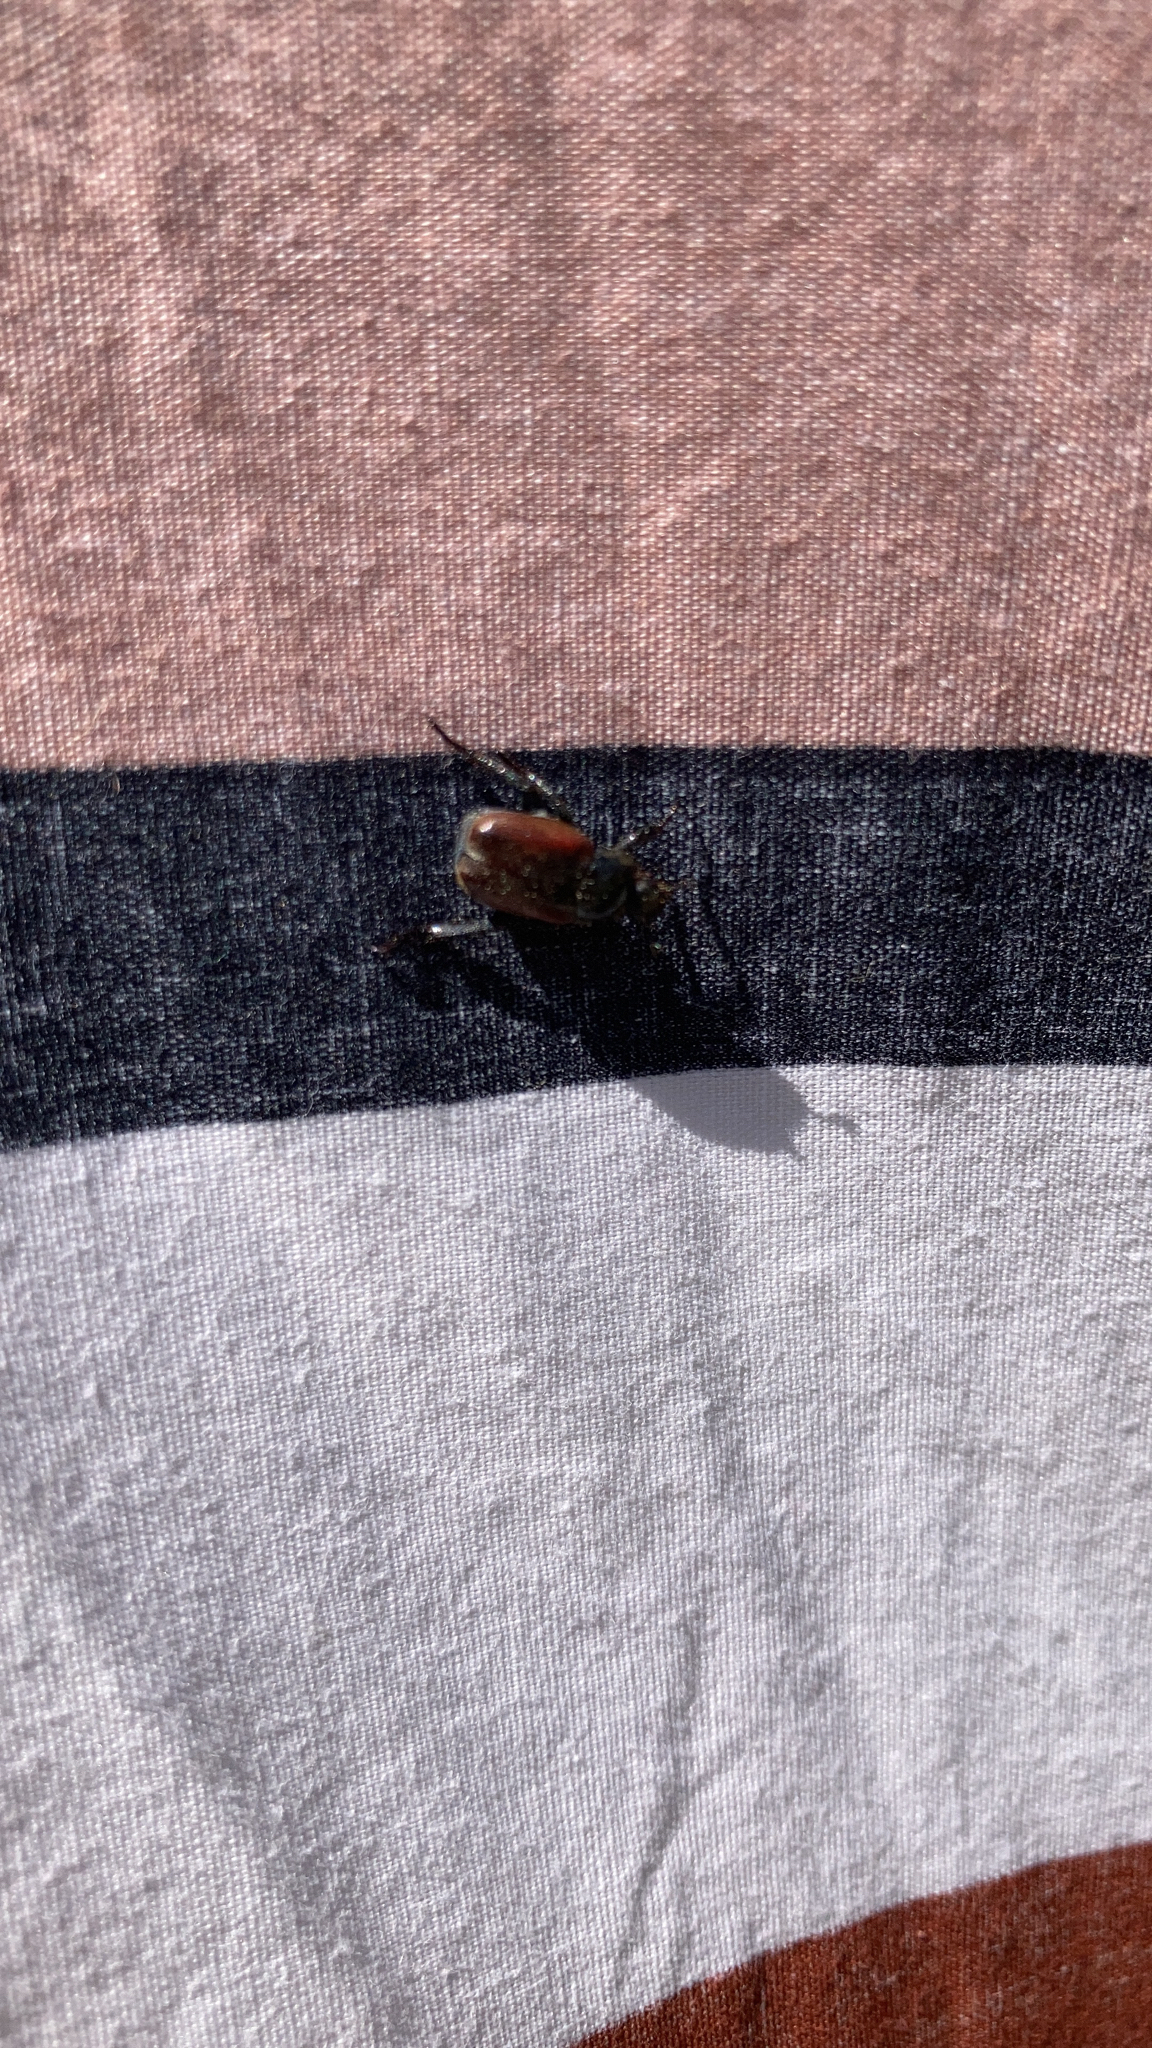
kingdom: Animalia
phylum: Arthropoda
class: Insecta
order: Coleoptera
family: Scarabaeidae
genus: Hoplia
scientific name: Hoplia philanthus
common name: Welsh chafer
